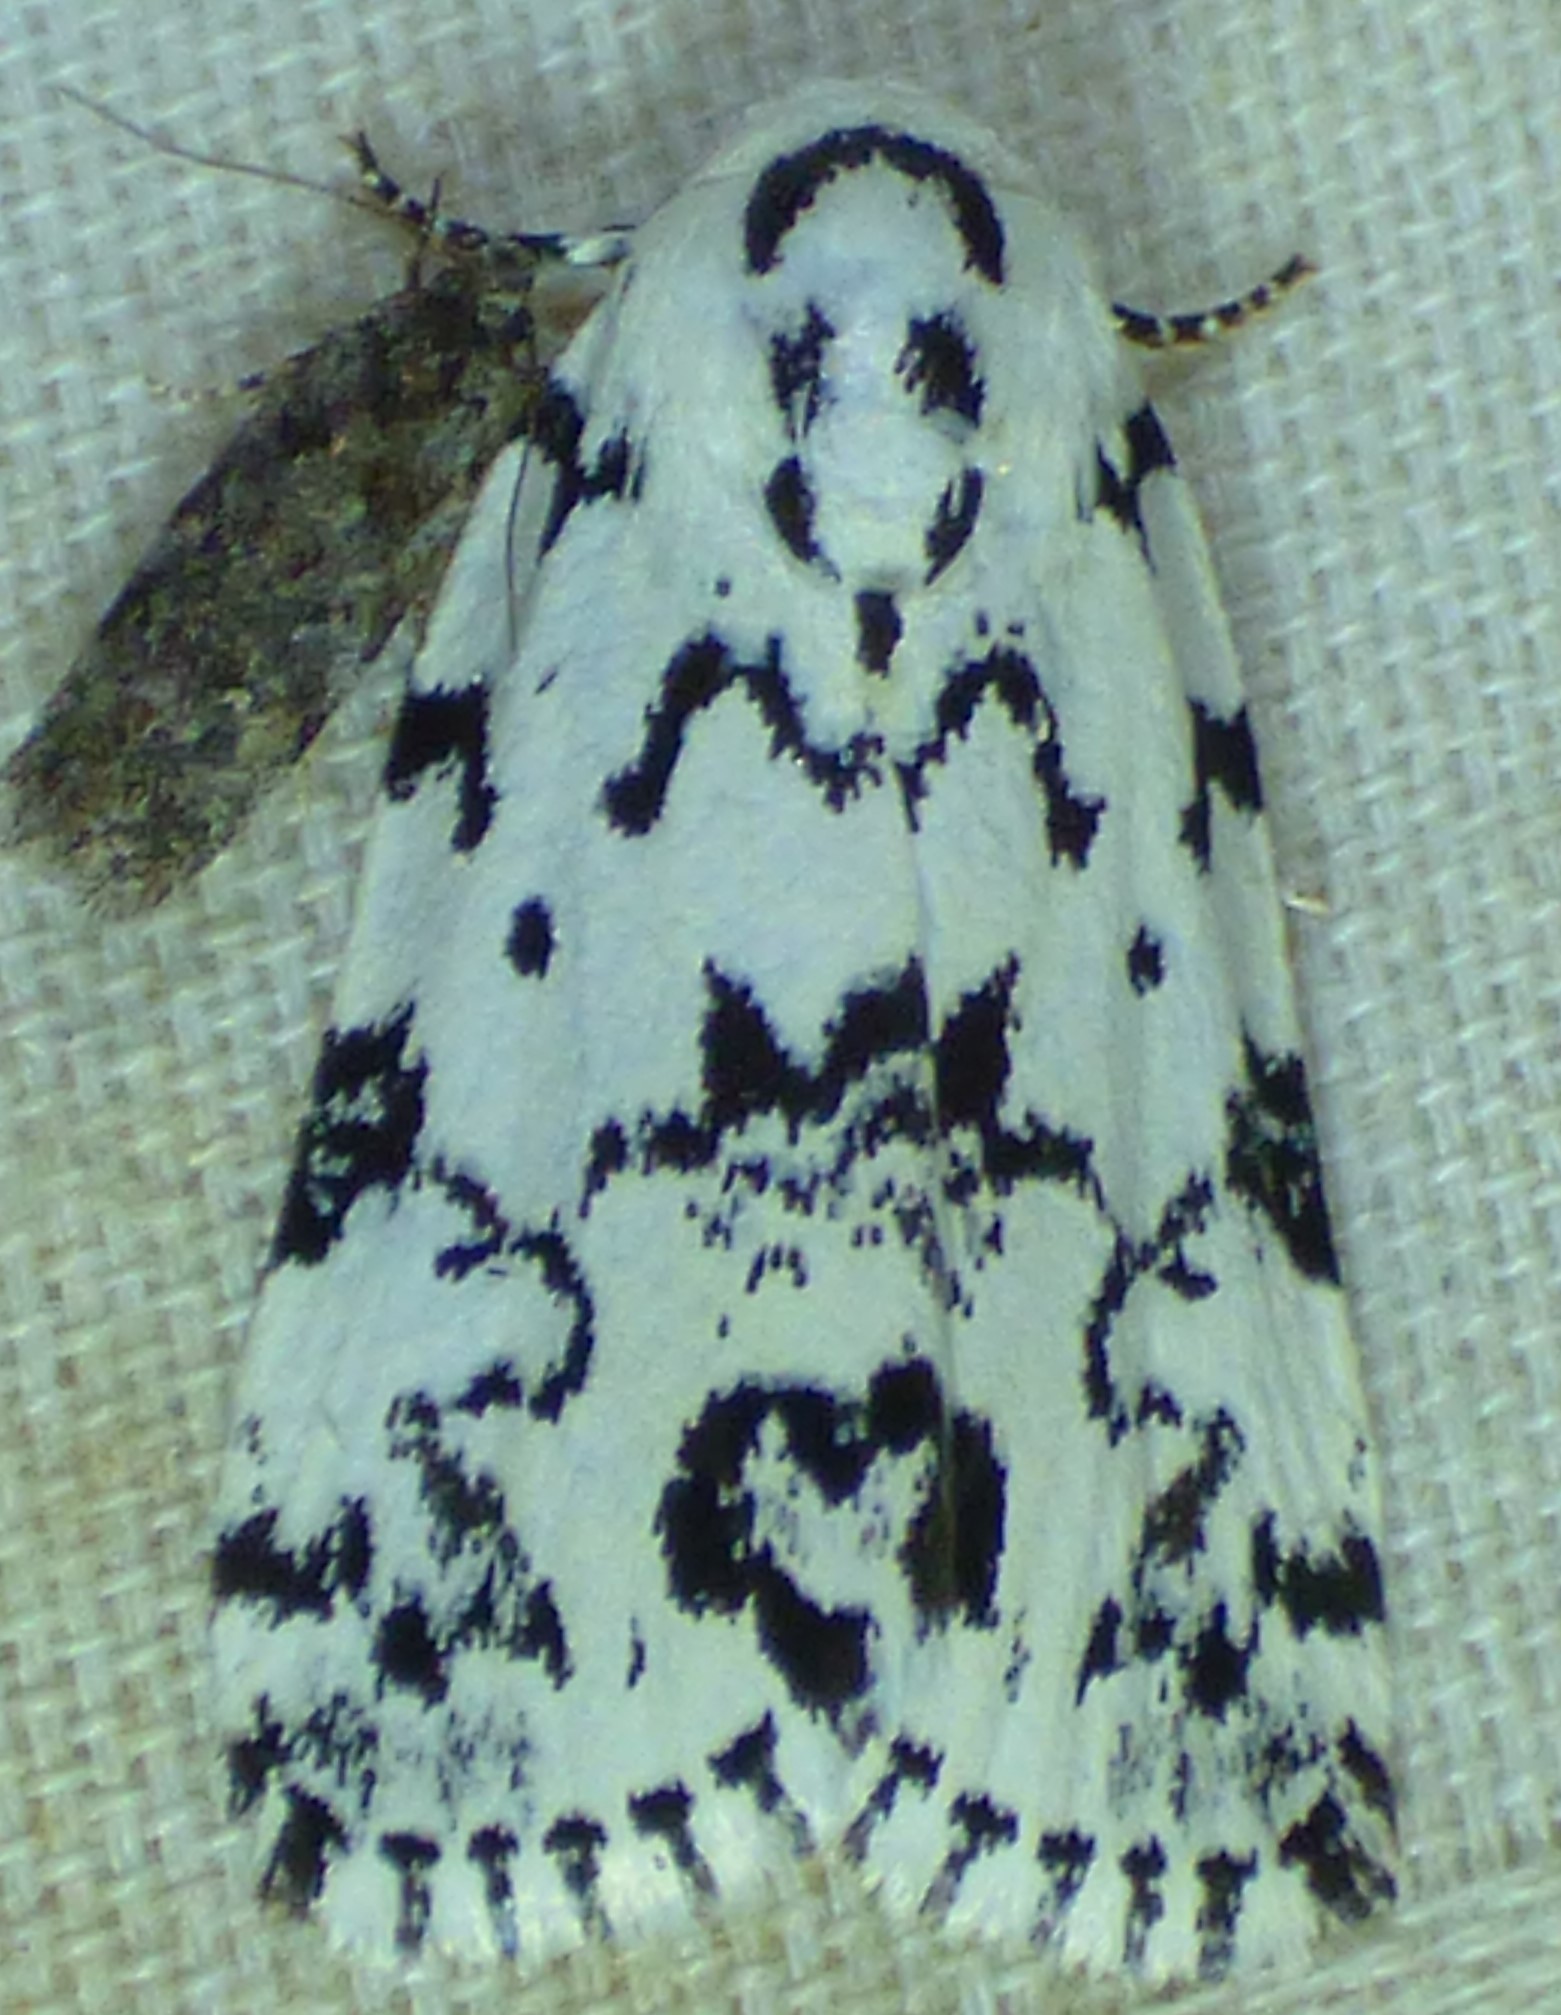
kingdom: Animalia
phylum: Arthropoda
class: Insecta
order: Lepidoptera
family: Noctuidae
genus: Polygrammate
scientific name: Polygrammate hebraeicum
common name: Hebrew moth
